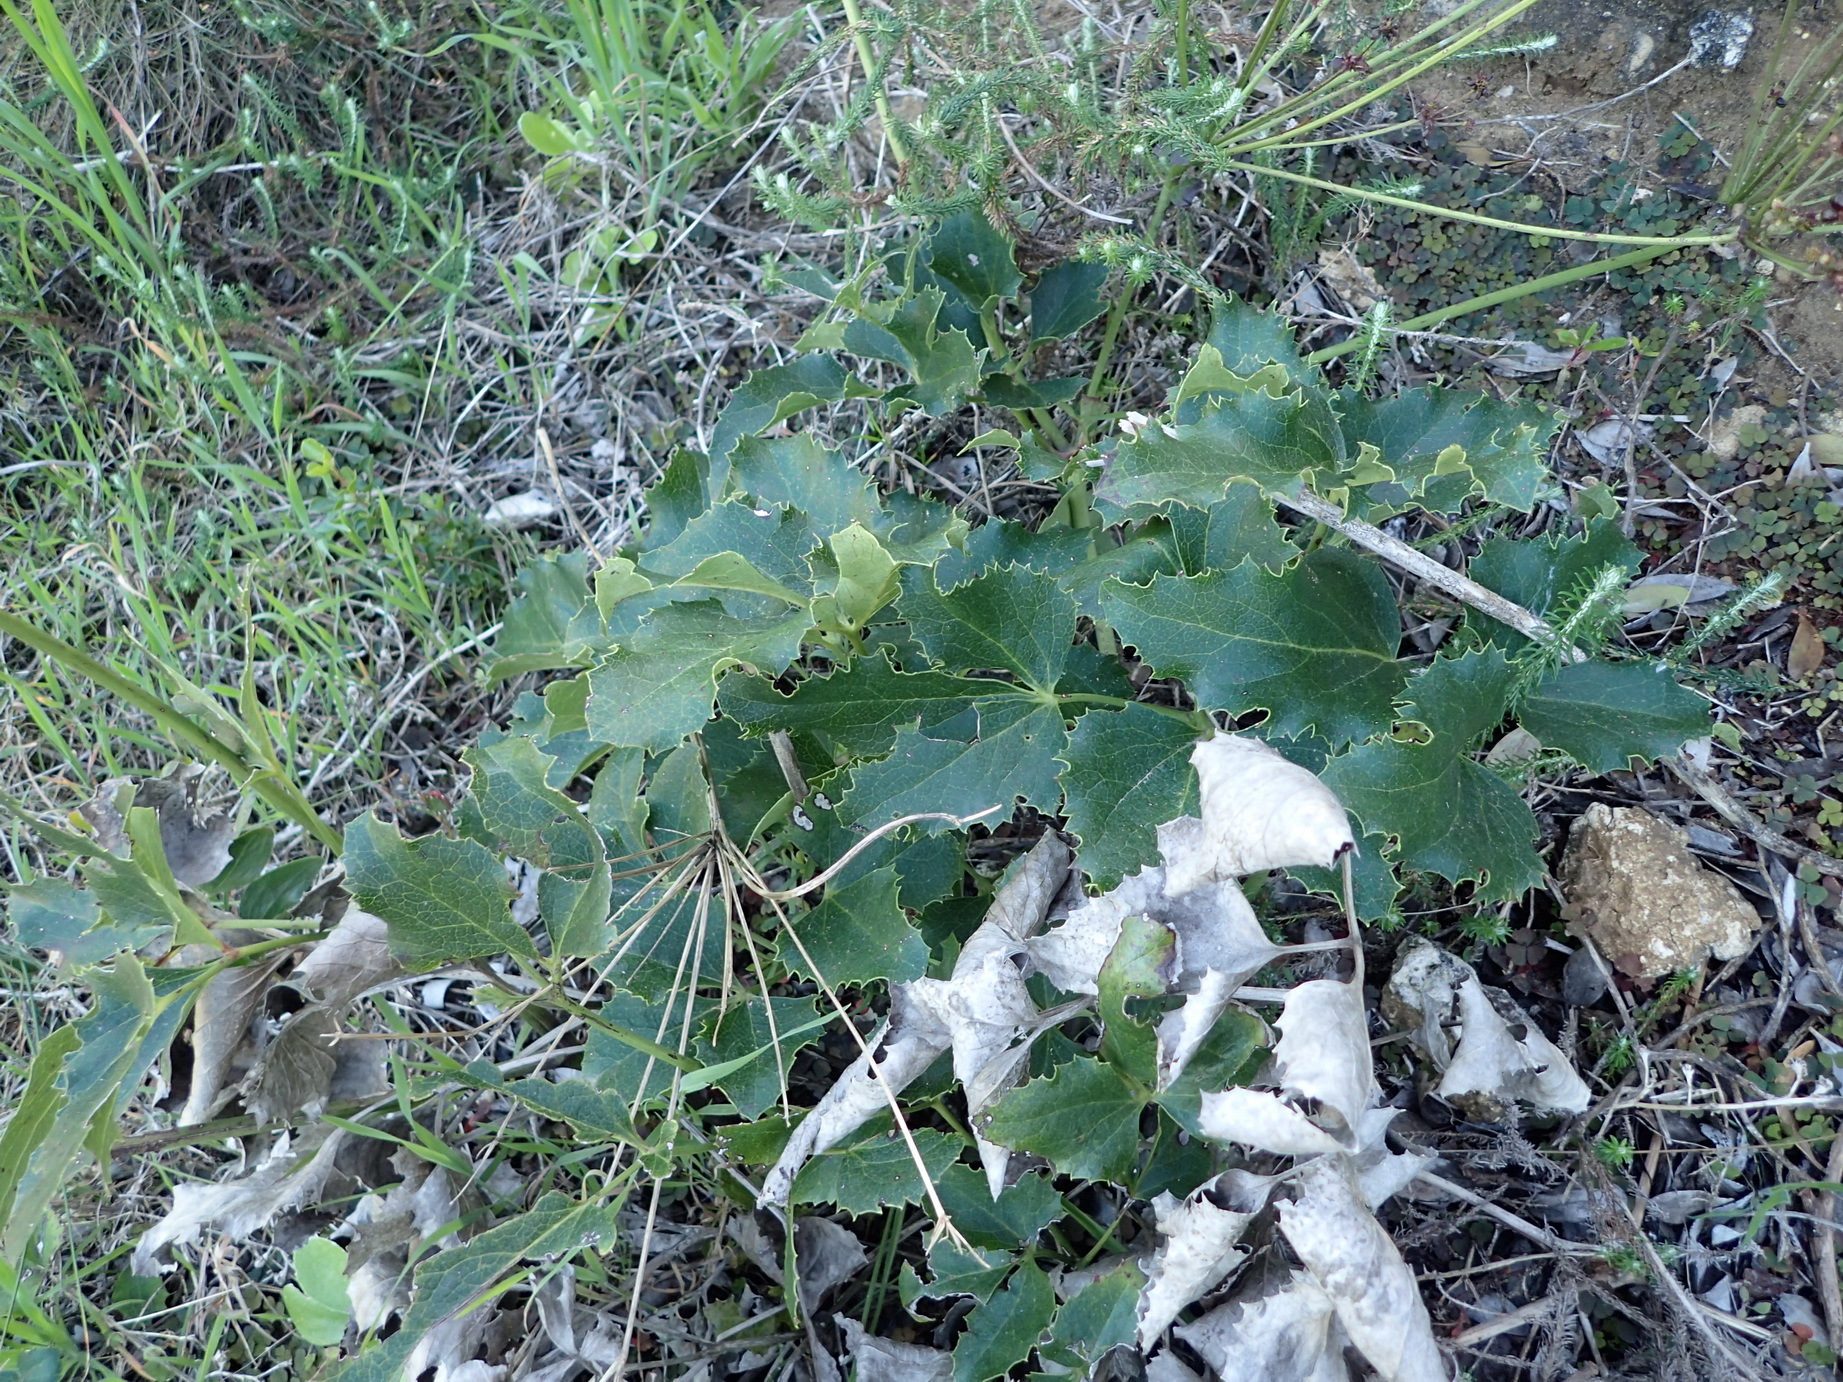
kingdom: Plantae
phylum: Tracheophyta
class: Magnoliopsida
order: Ranunculales
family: Ranunculaceae
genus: Knowltonia
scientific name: Knowltonia vesicatoria
